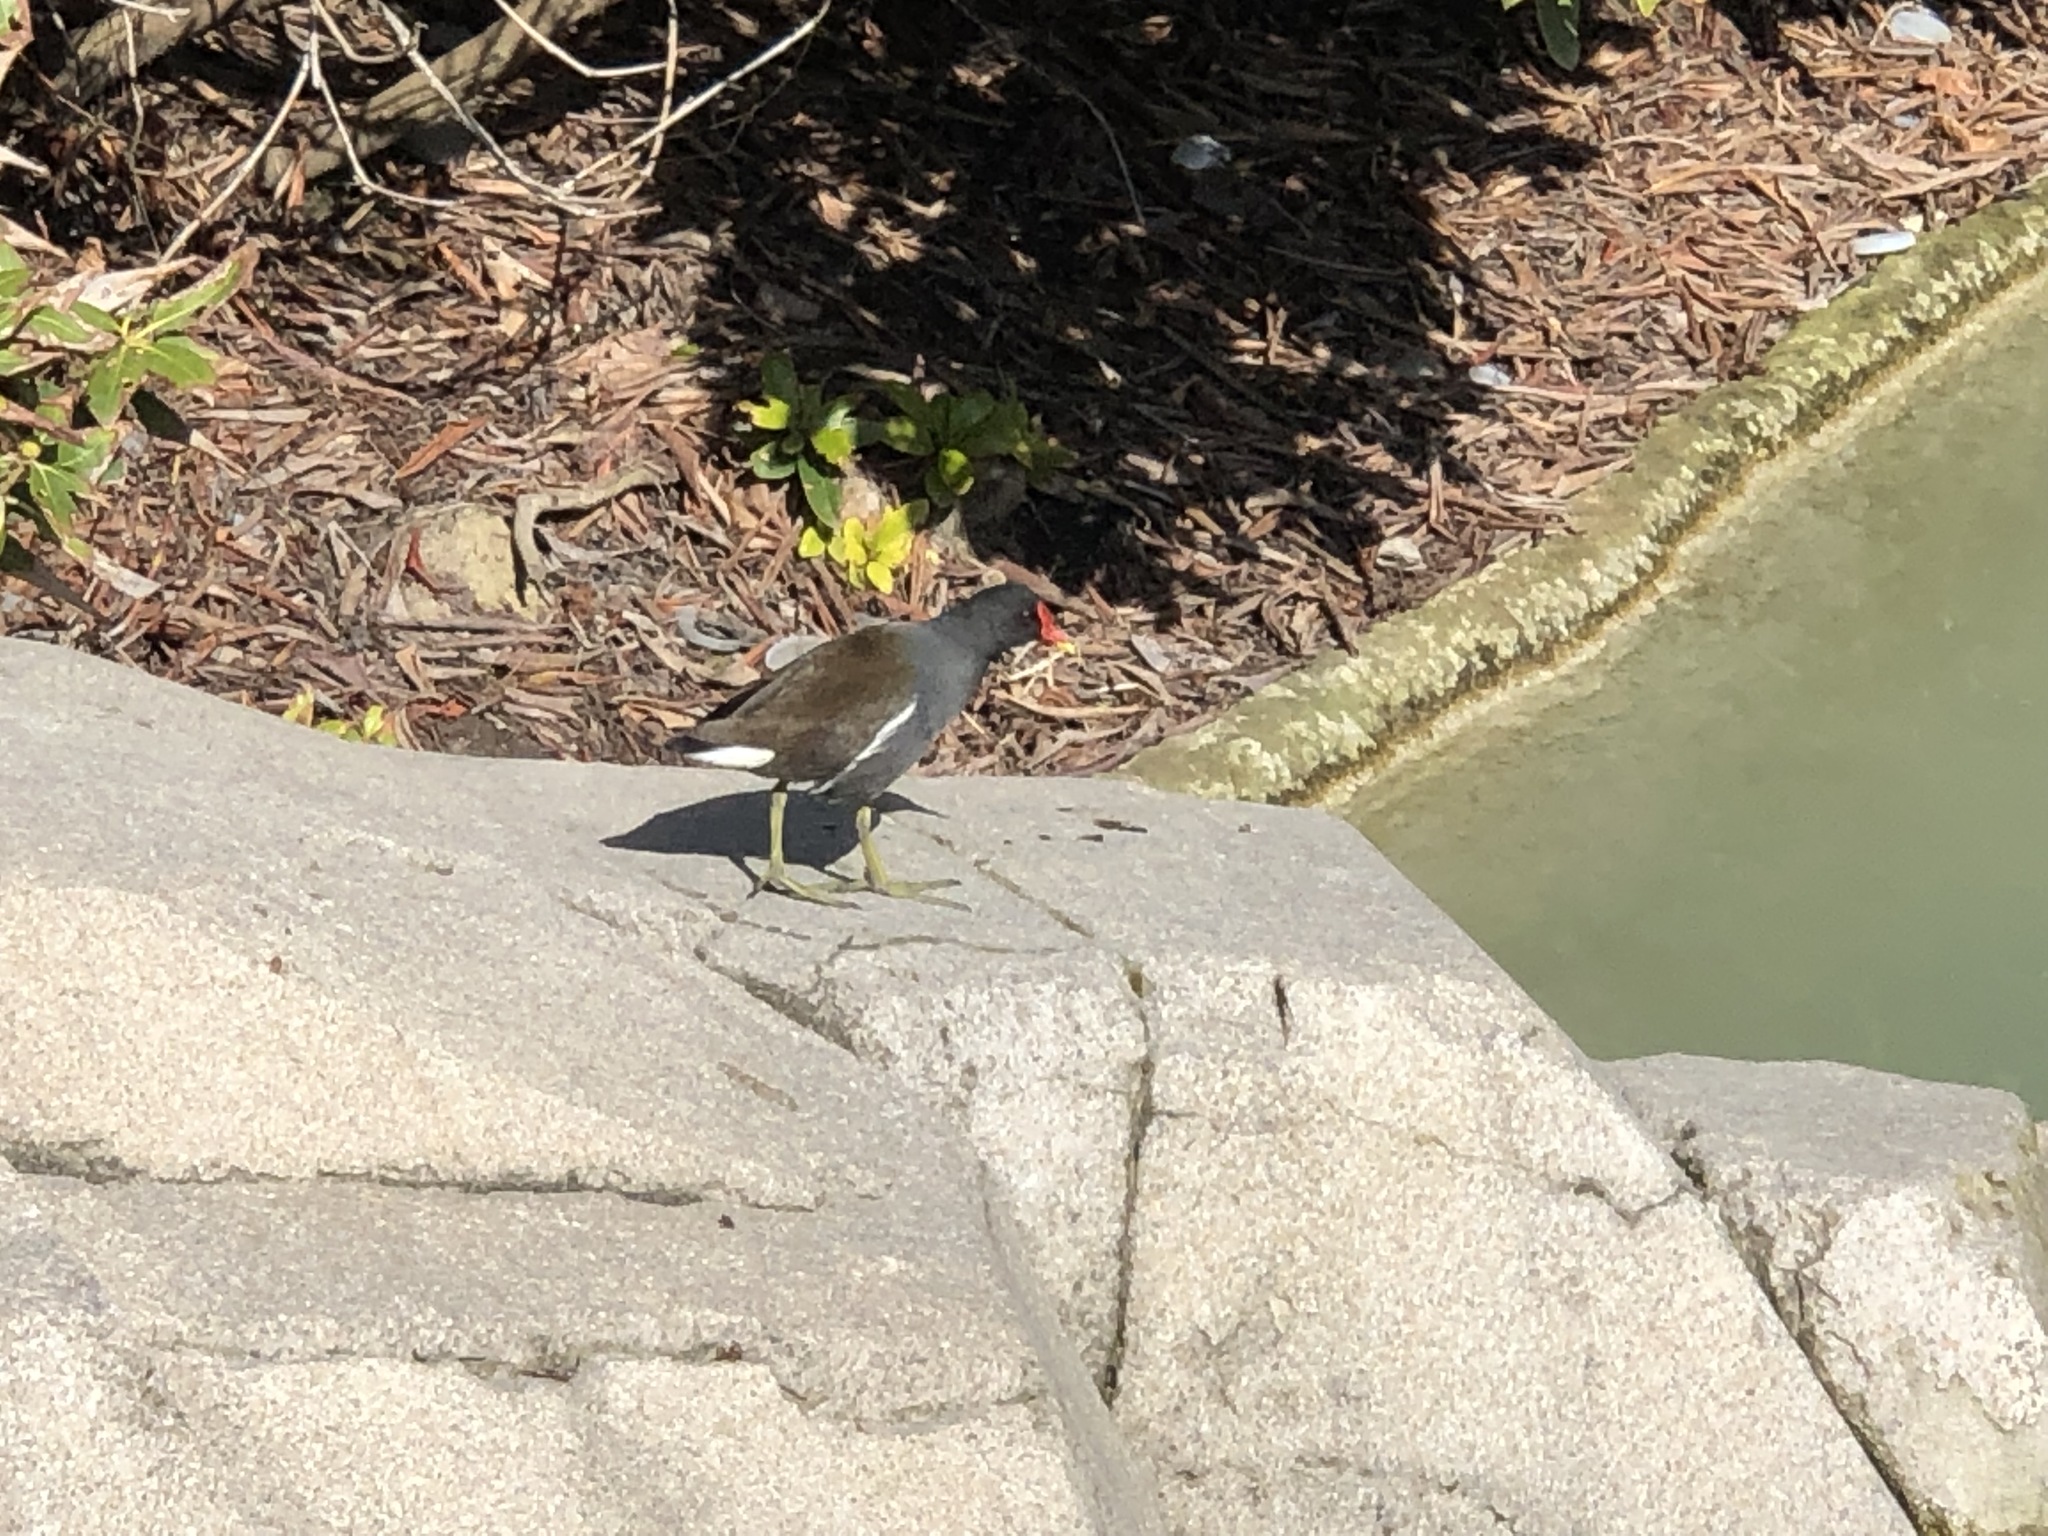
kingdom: Animalia
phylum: Chordata
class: Aves
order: Gruiformes
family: Rallidae
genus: Gallinula
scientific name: Gallinula chloropus
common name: Common moorhen
